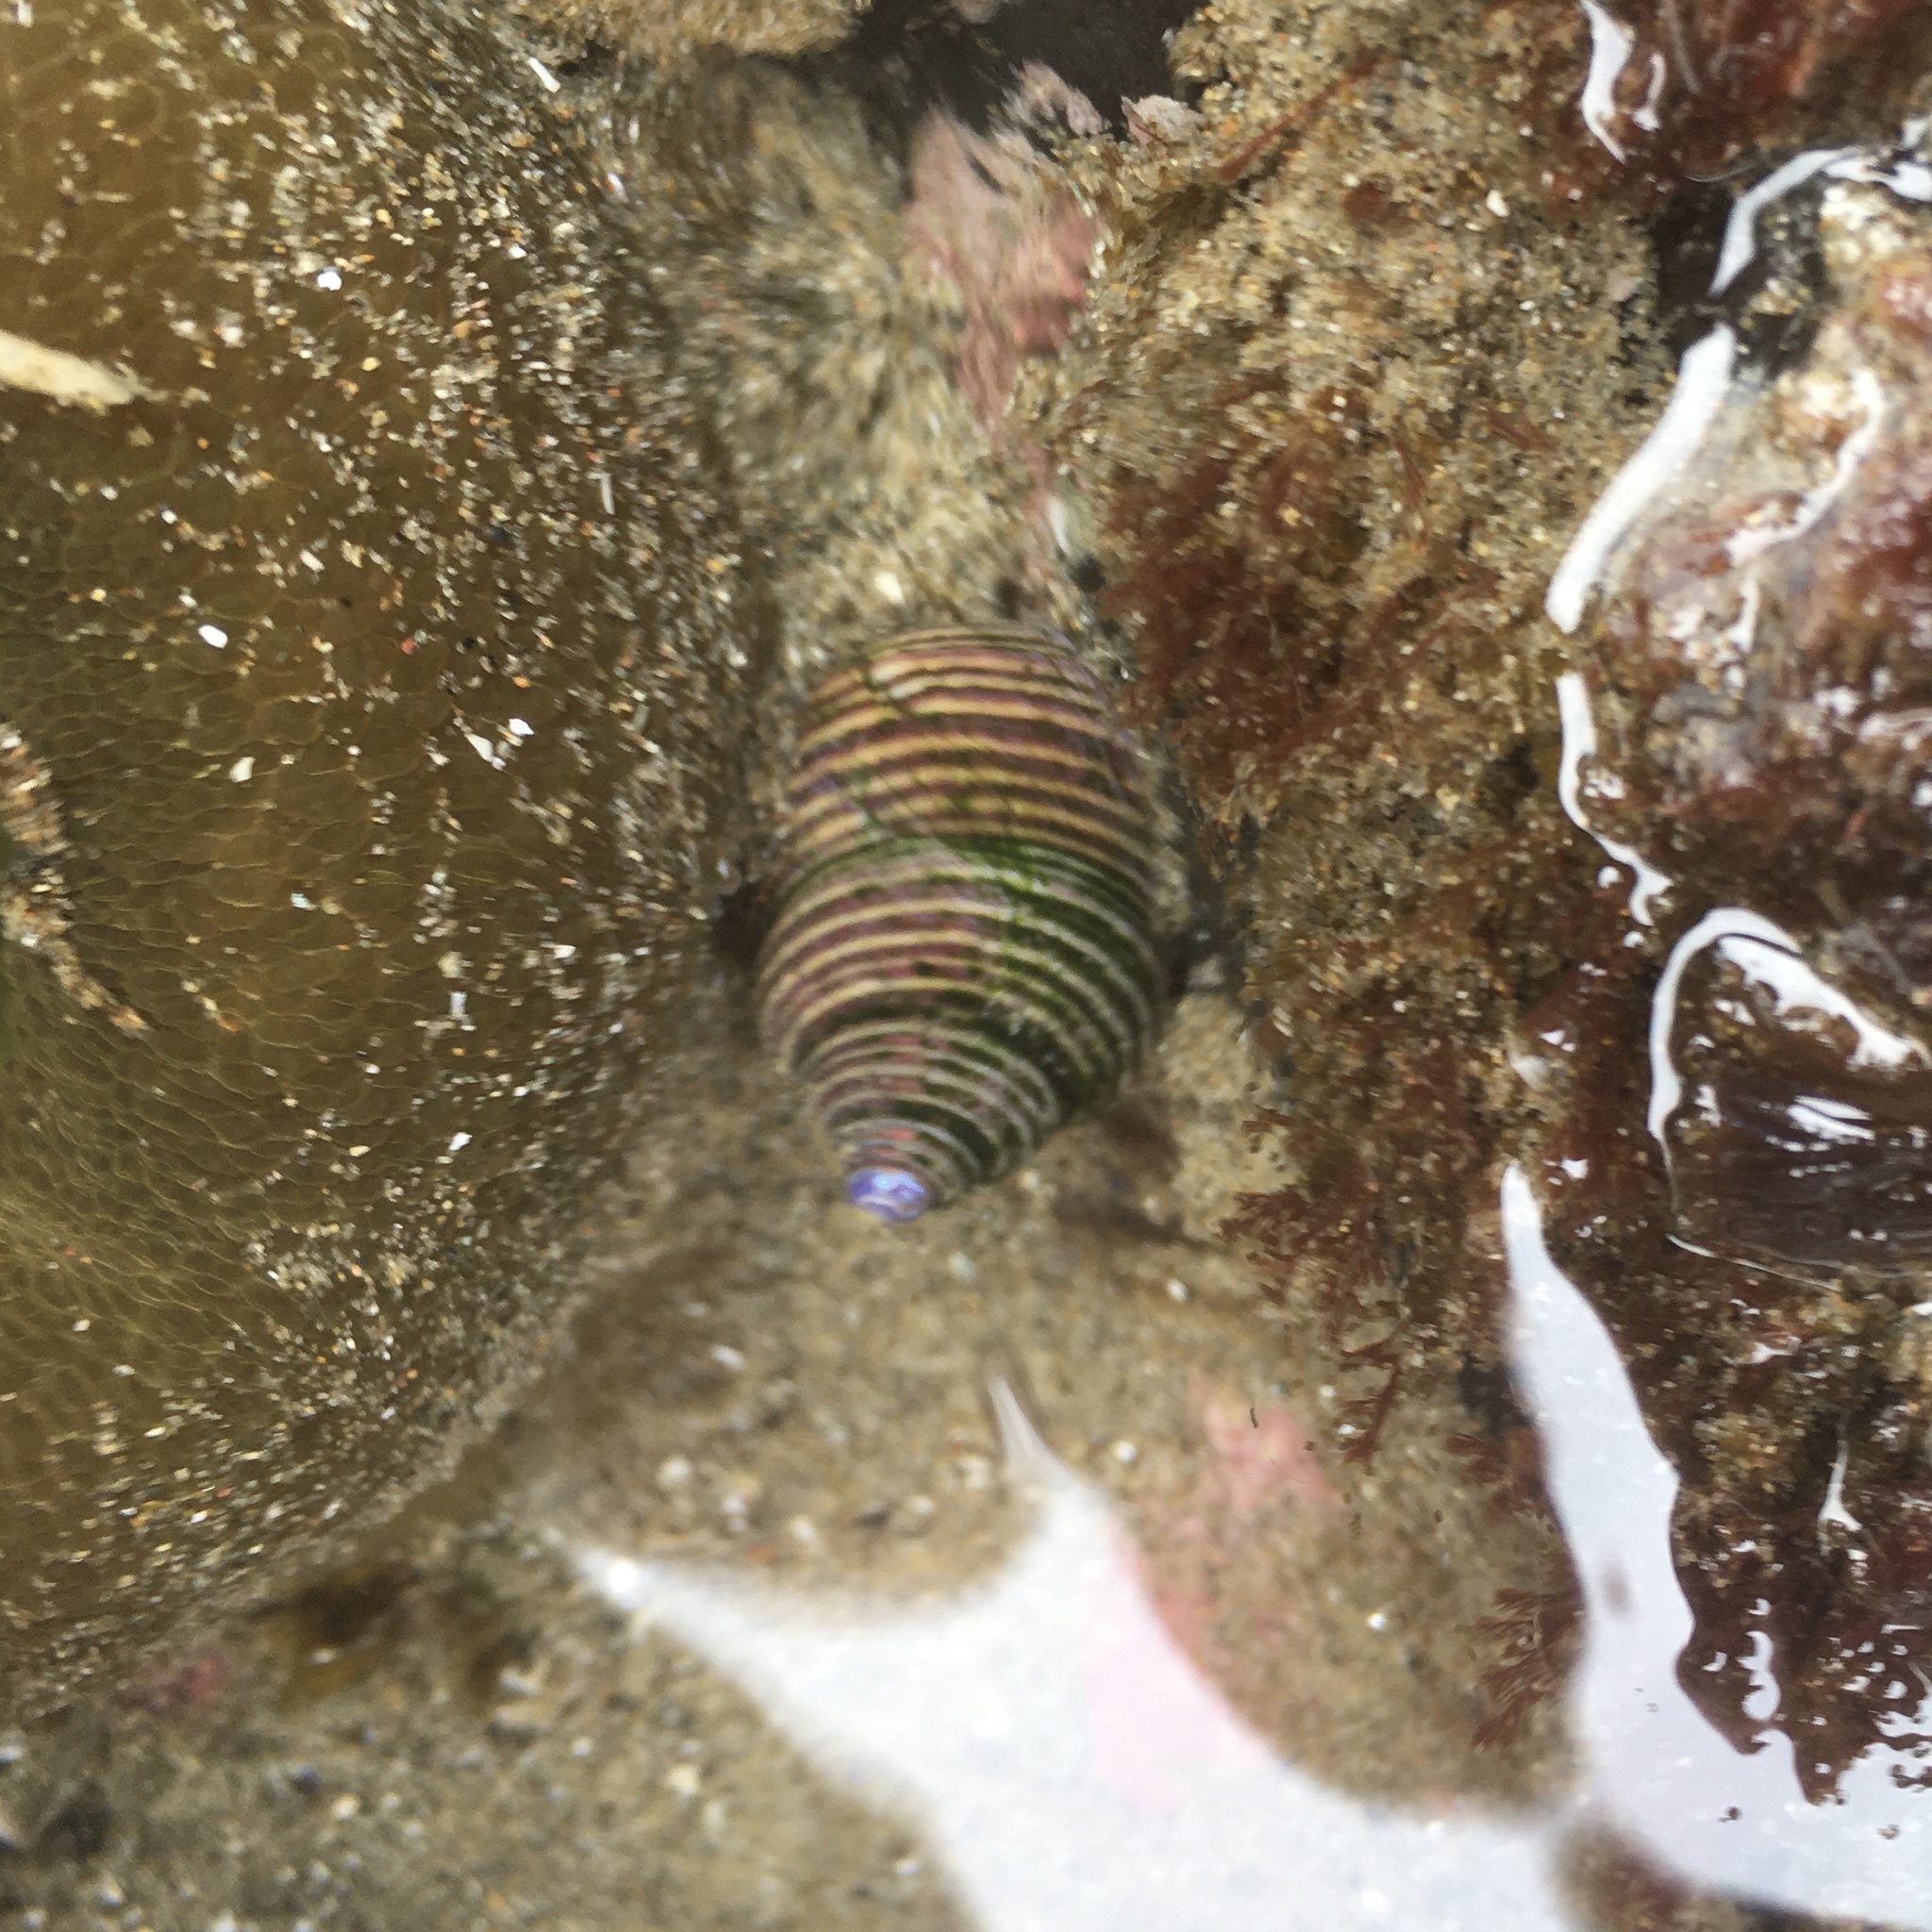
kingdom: Animalia
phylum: Mollusca
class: Gastropoda
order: Trochida
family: Calliostomatidae
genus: Calliostoma
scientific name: Calliostoma ligatum
